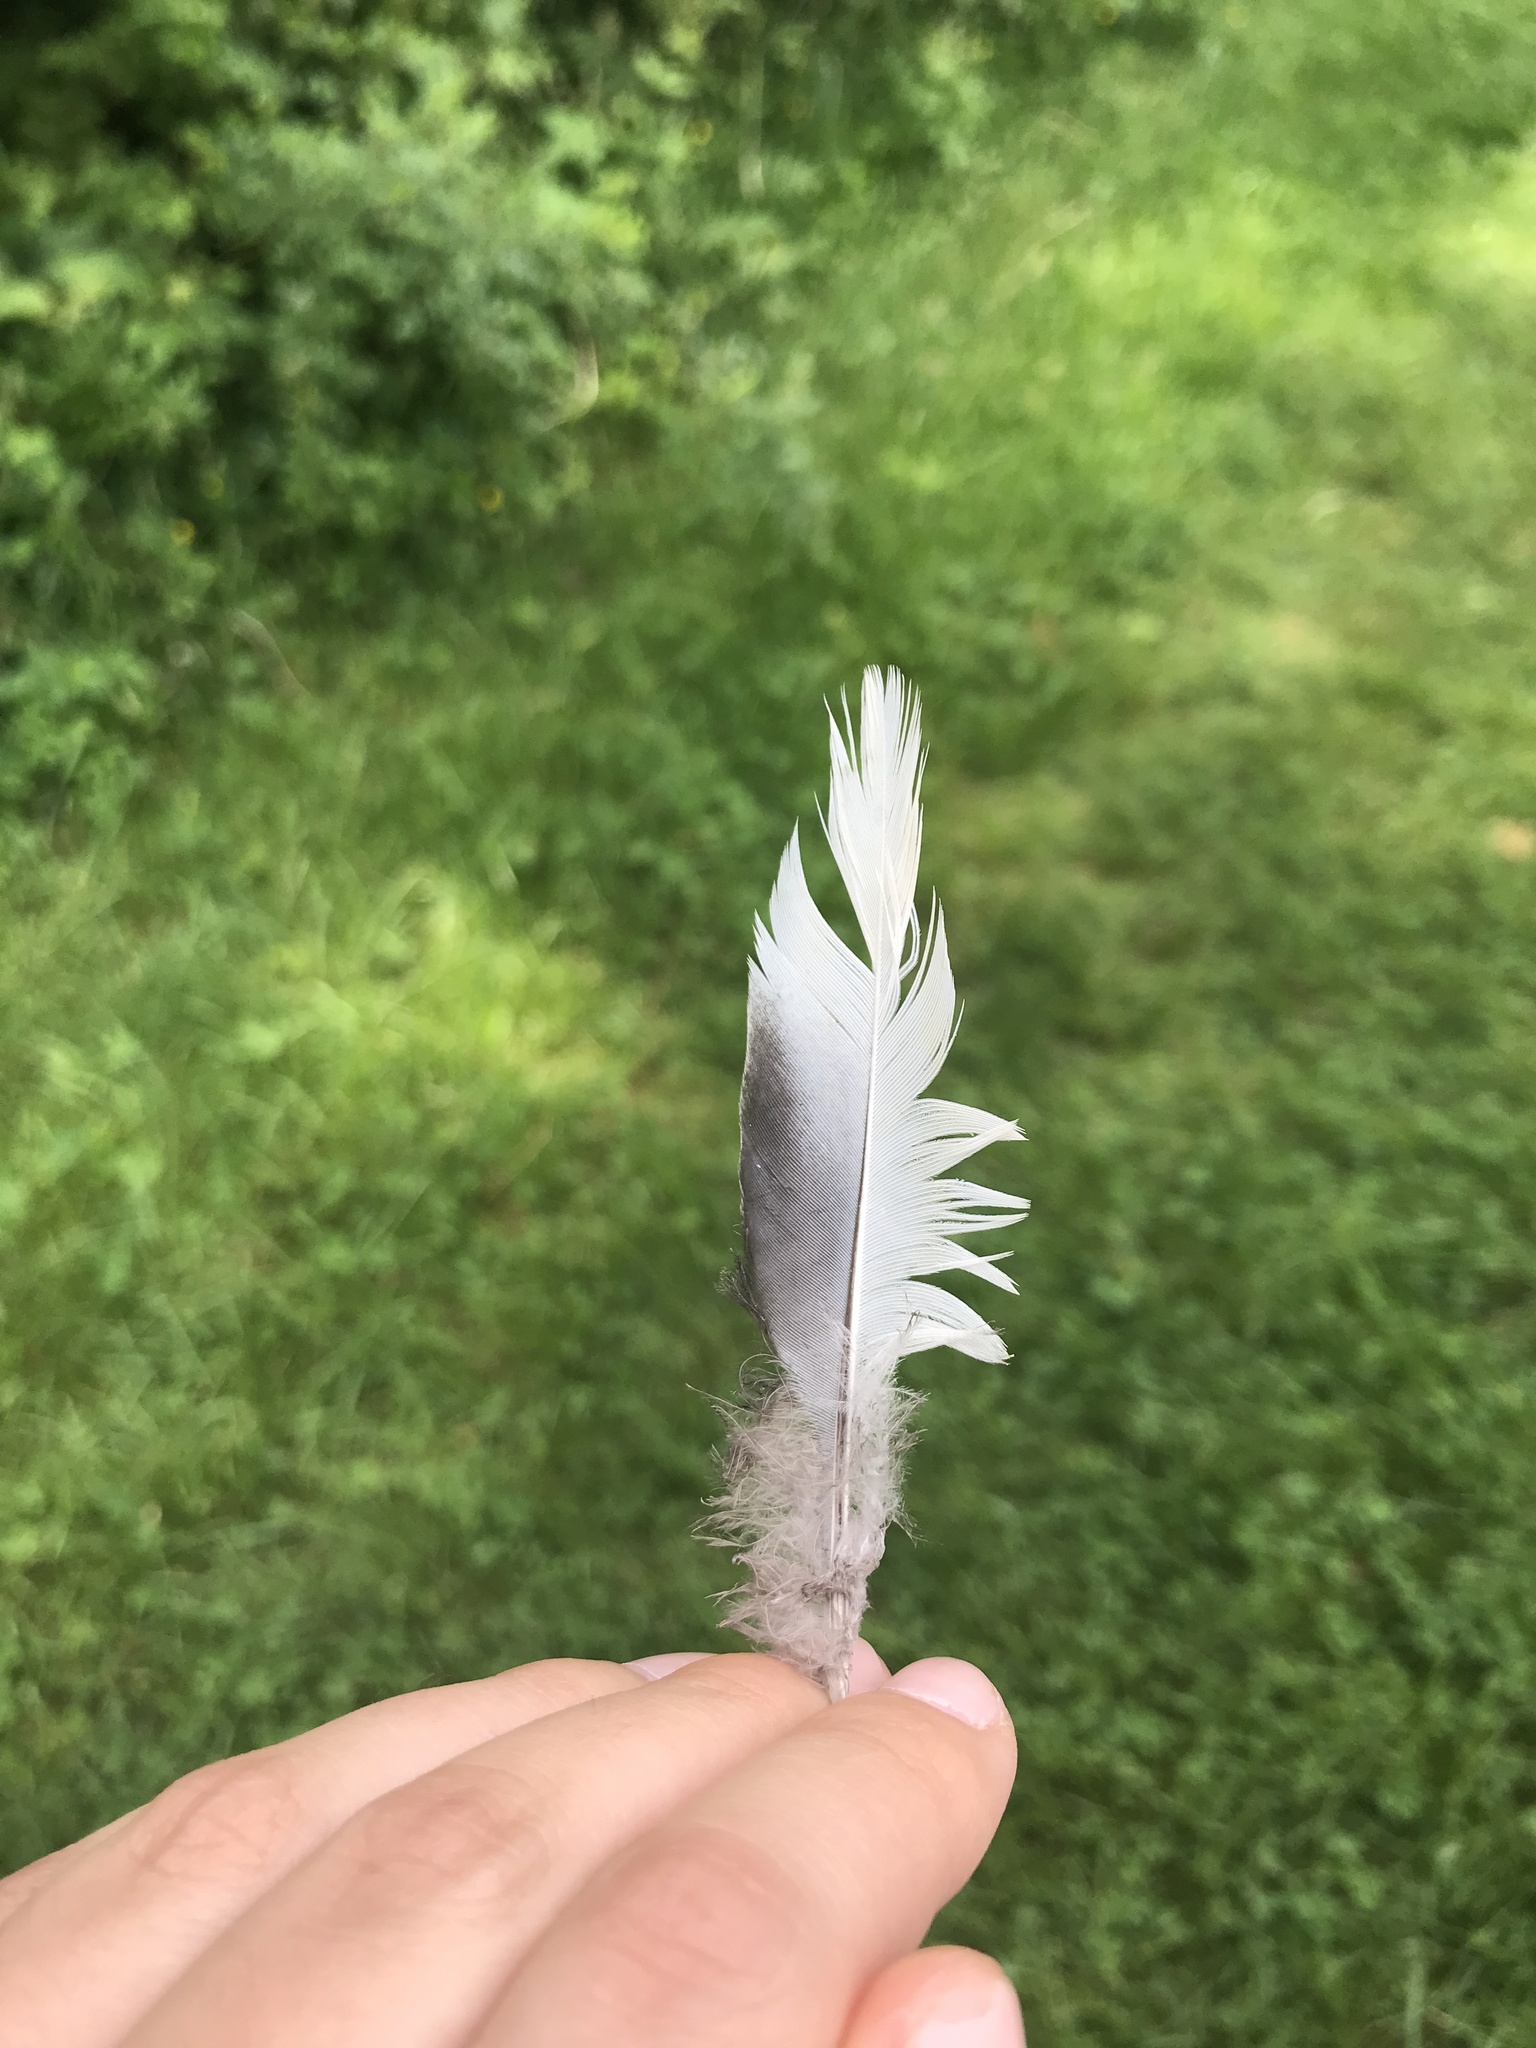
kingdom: Animalia
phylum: Chordata
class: Aves
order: Columbiformes
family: Columbidae
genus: Zenaida
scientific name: Zenaida macroura
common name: Mourning dove
